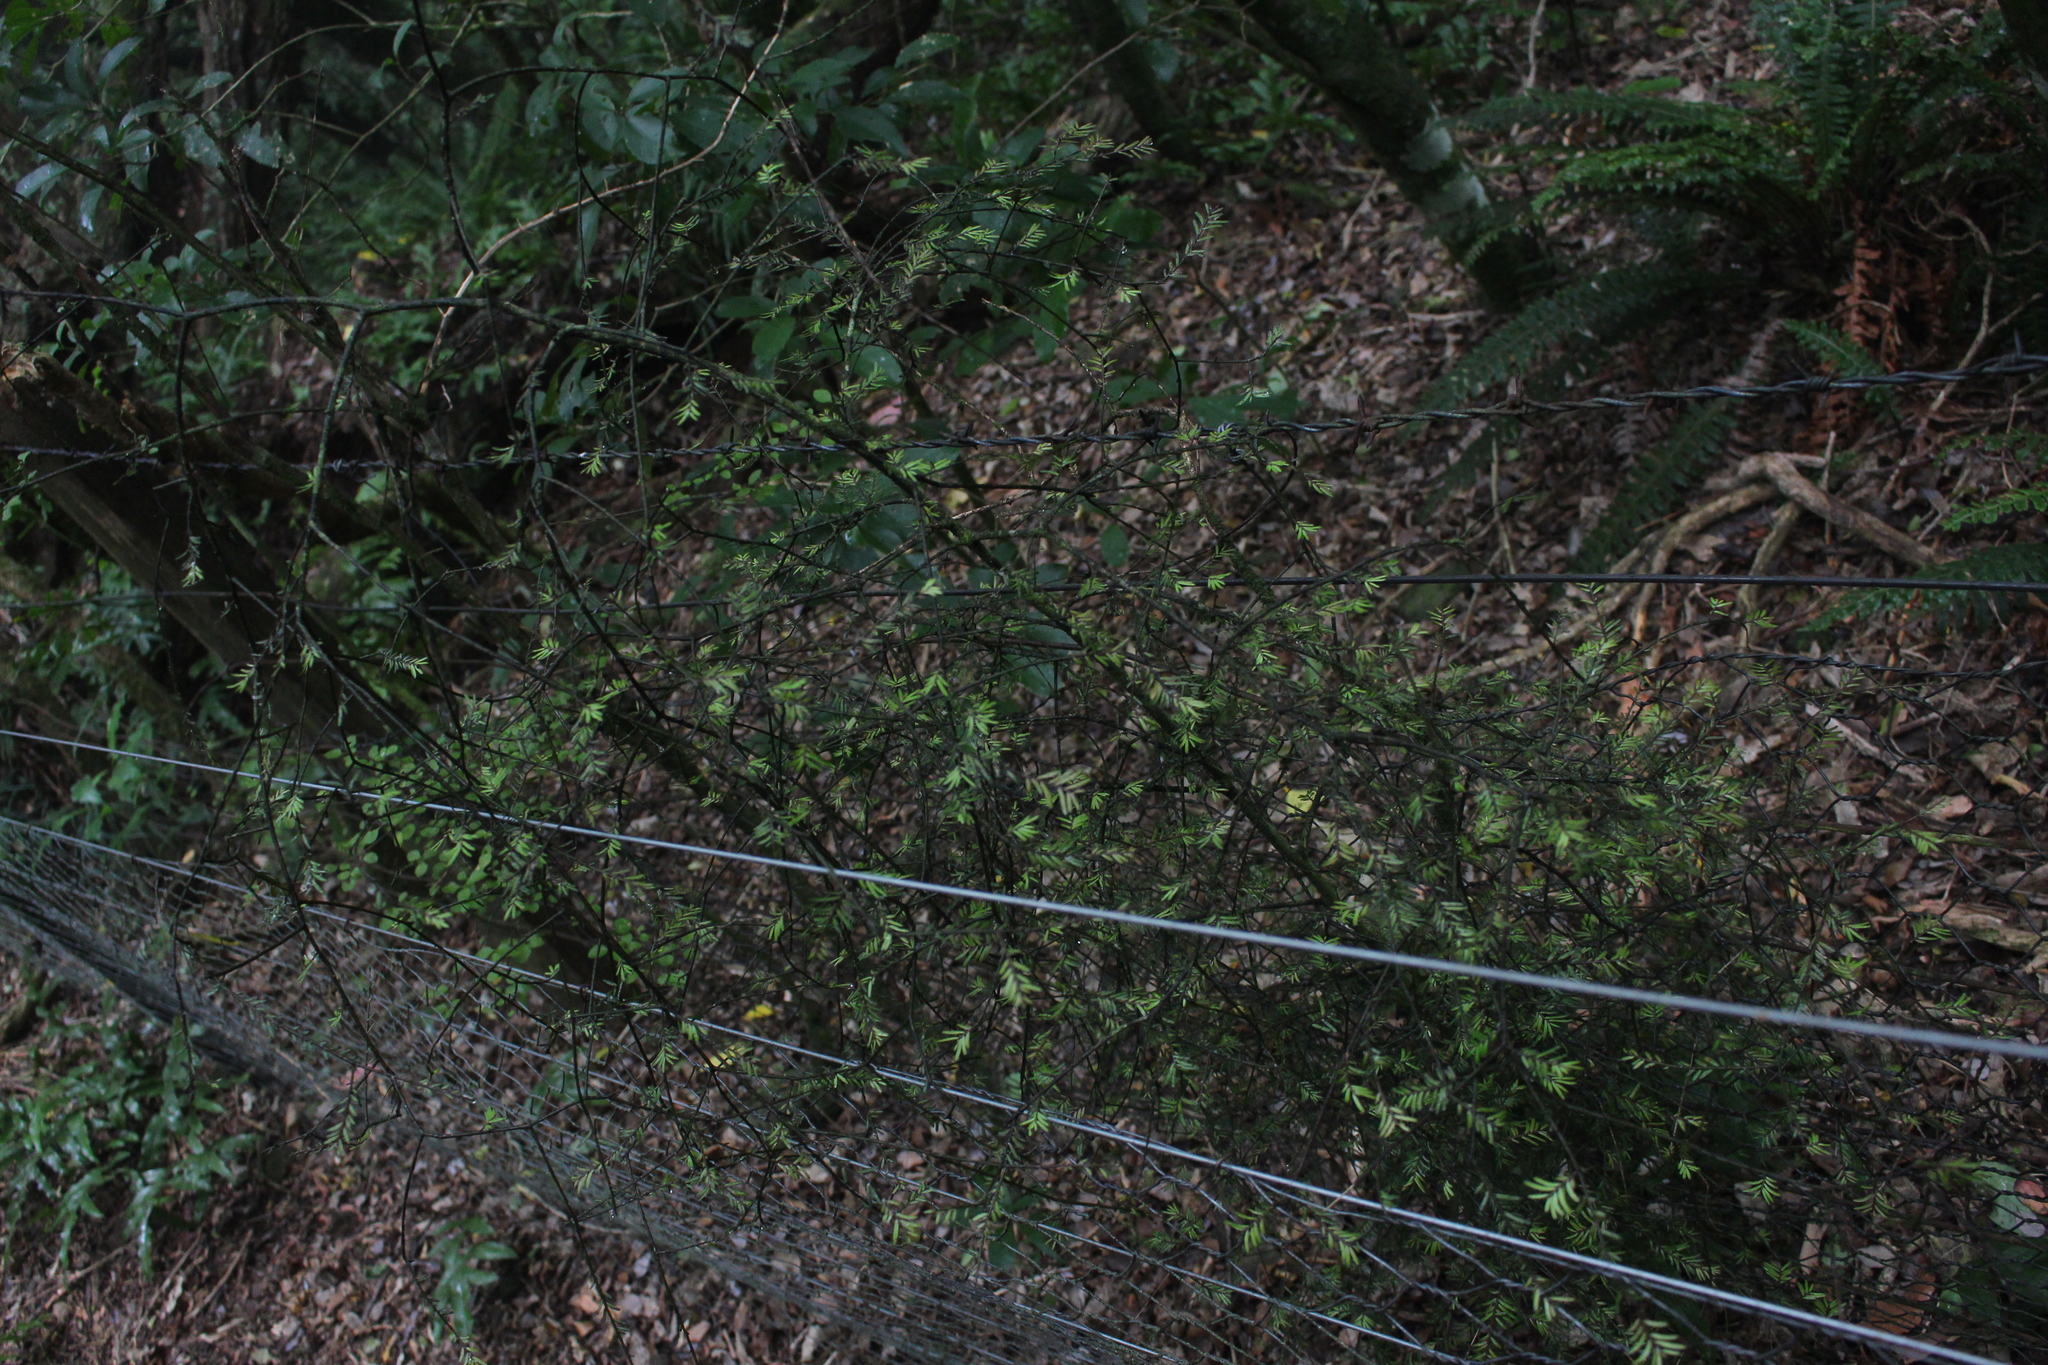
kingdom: Plantae
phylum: Tracheophyta
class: Pinopsida
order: Pinales
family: Podocarpaceae
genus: Prumnopitys
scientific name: Prumnopitys taxifolia
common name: Matai
